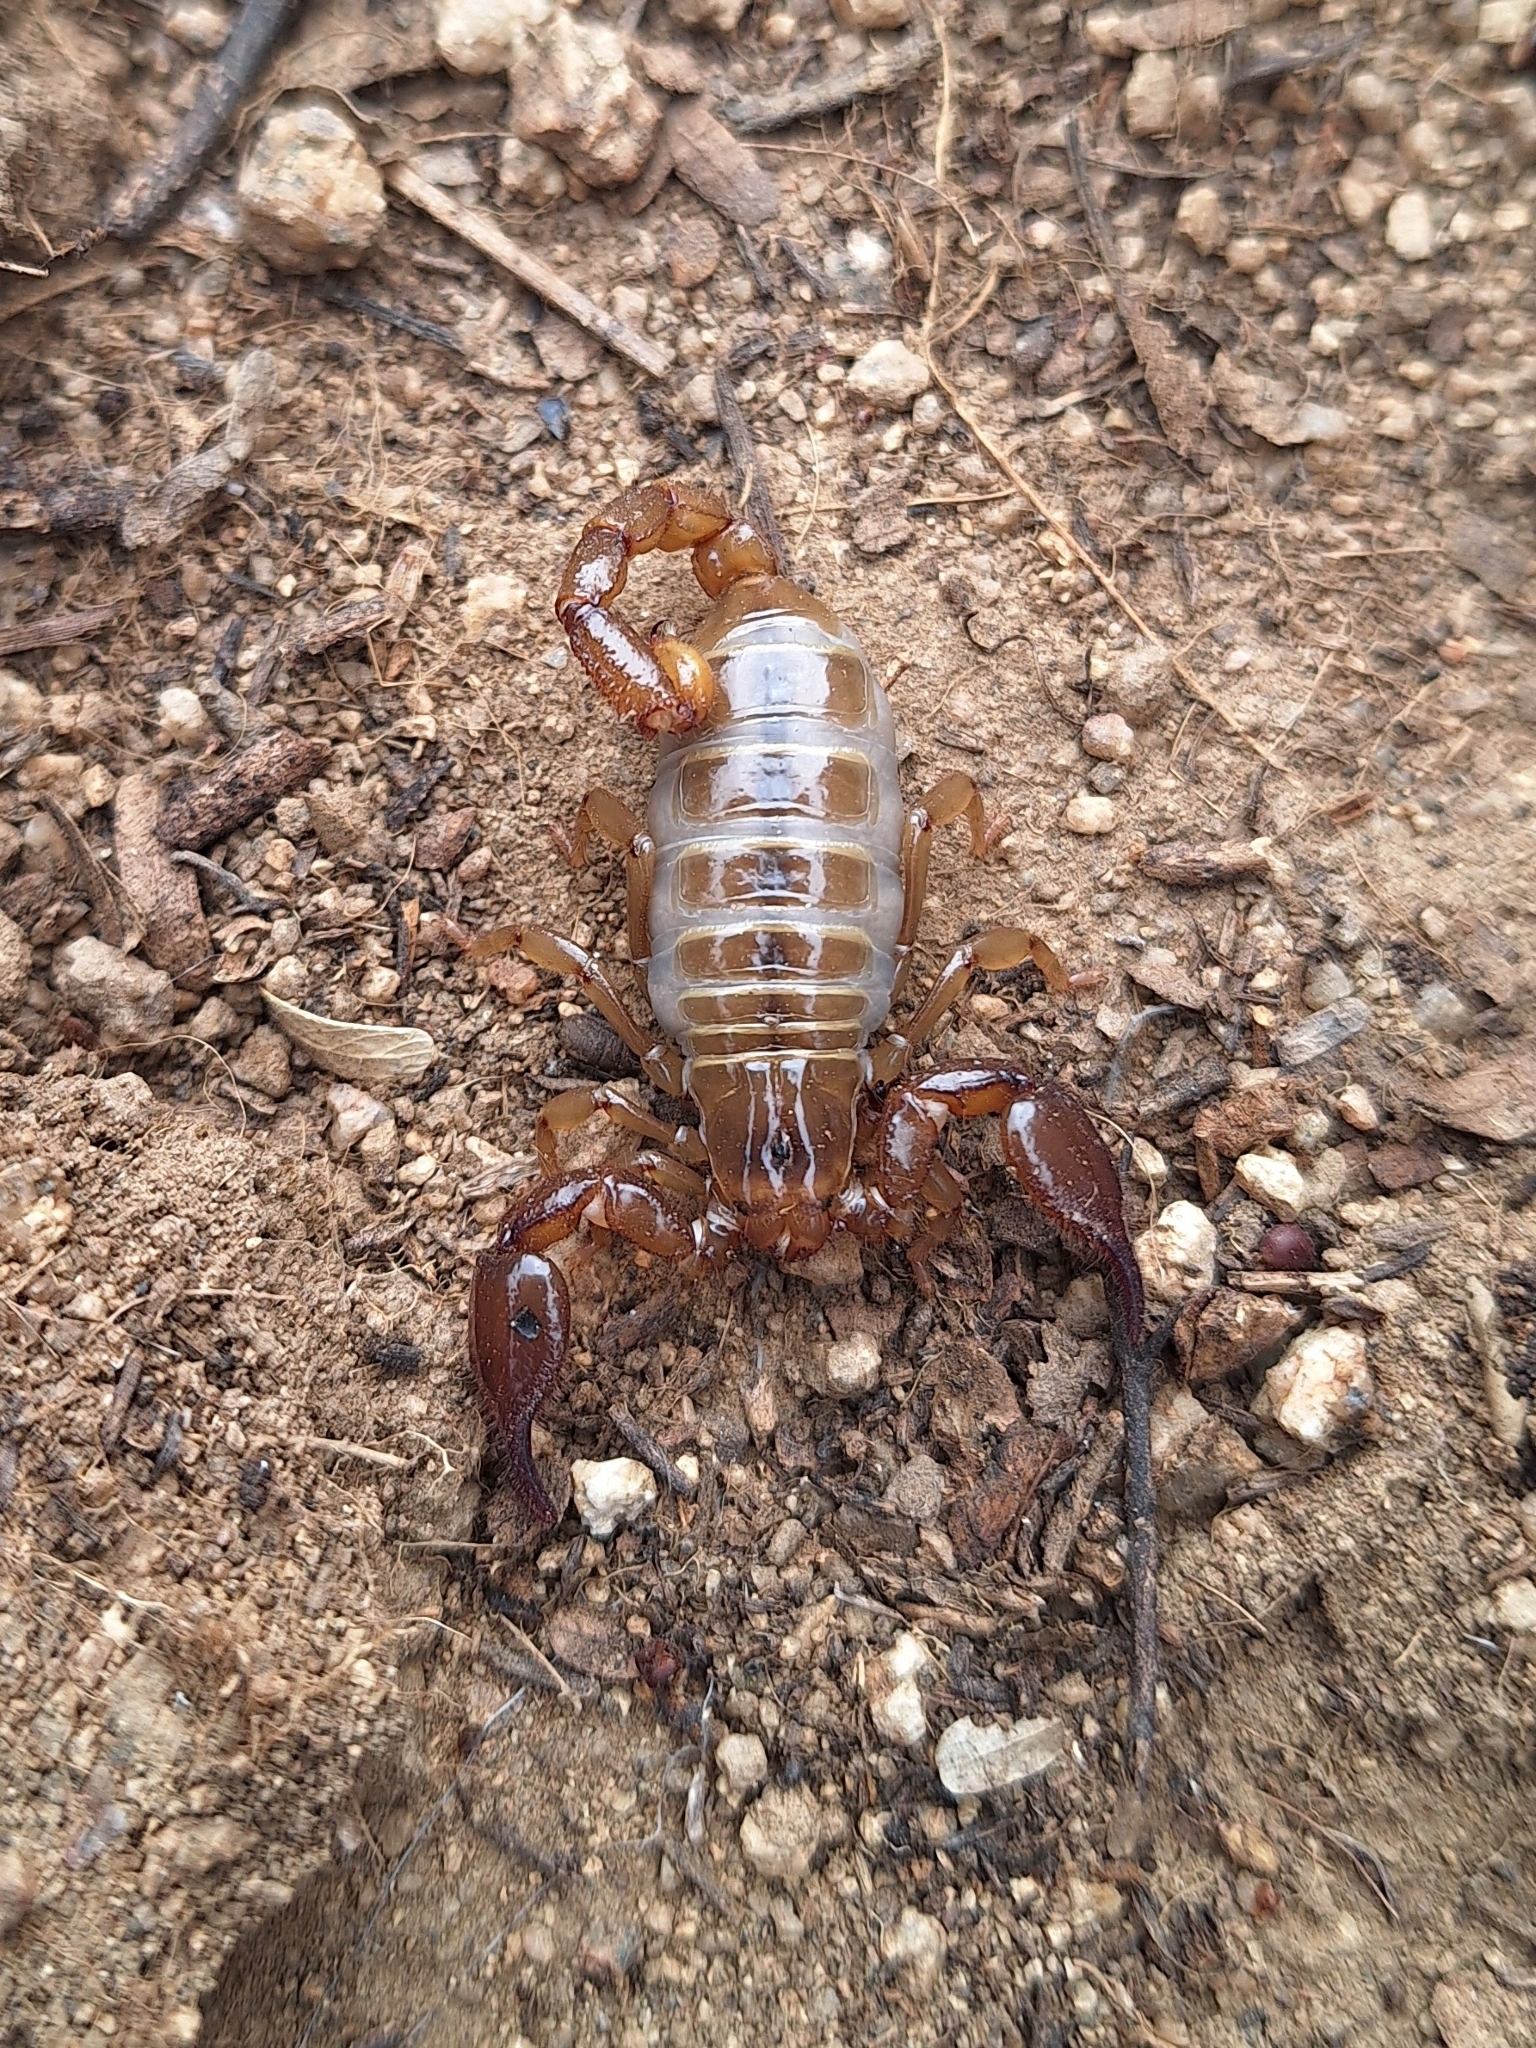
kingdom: Animalia
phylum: Arthropoda
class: Arachnida
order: Scorpiones
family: Diplocentridae
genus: Diplocentrus
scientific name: Diplocentrus spitzeri
